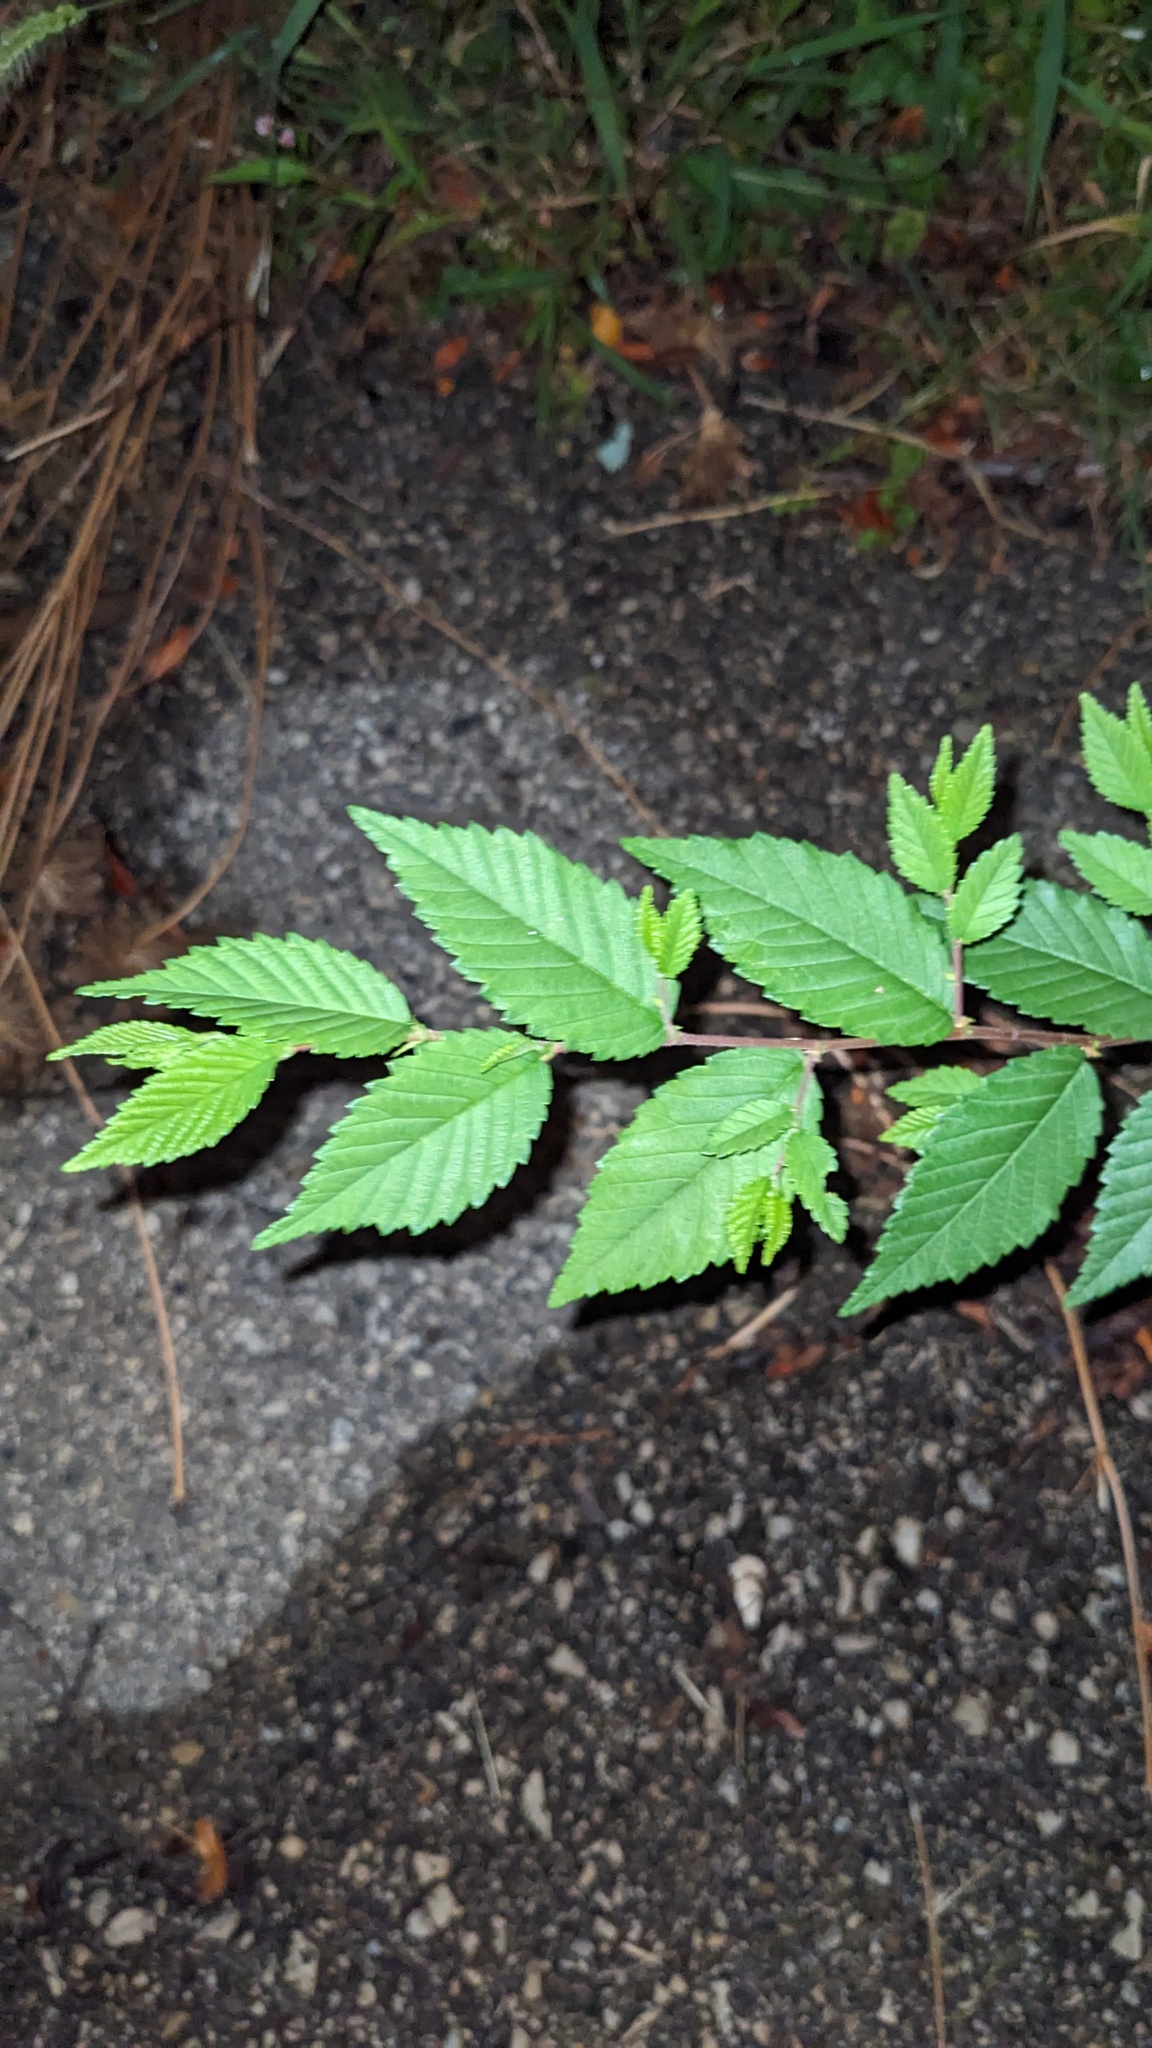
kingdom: Plantae
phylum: Tracheophyta
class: Magnoliopsida
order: Rosales
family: Ulmaceae
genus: Ulmus
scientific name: Ulmus pumila
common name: Siberian elm
